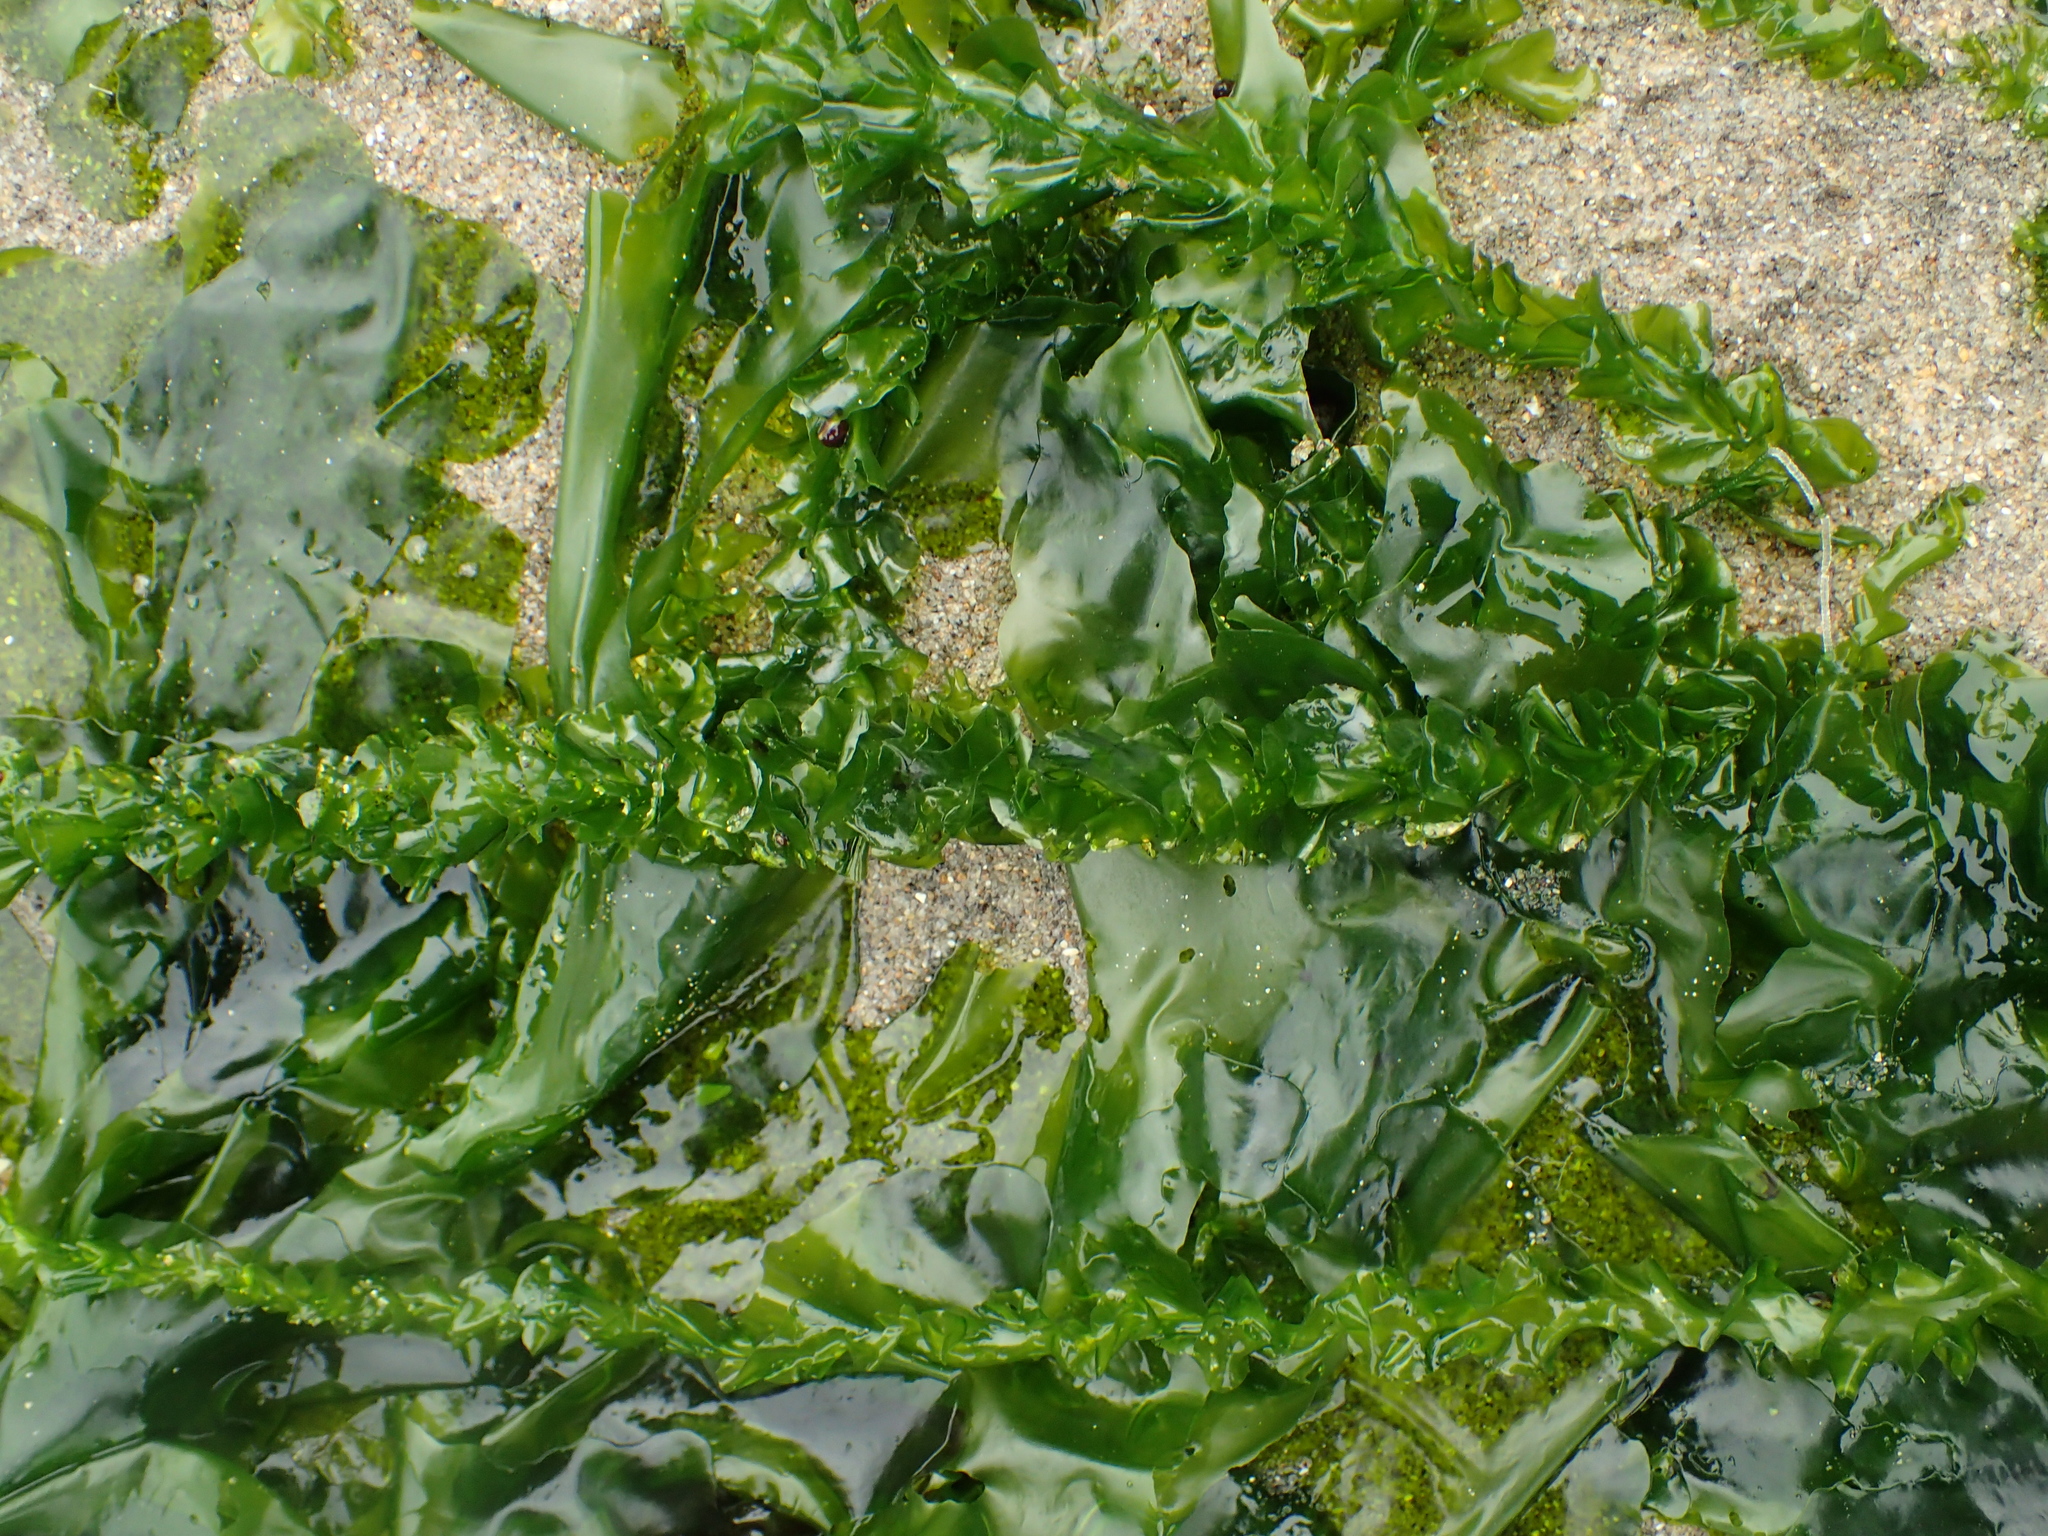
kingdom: Plantae
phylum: Chlorophyta
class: Ulvophyceae
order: Ulvales
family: Ulvaceae
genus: Ulva
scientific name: Ulva taeniata
